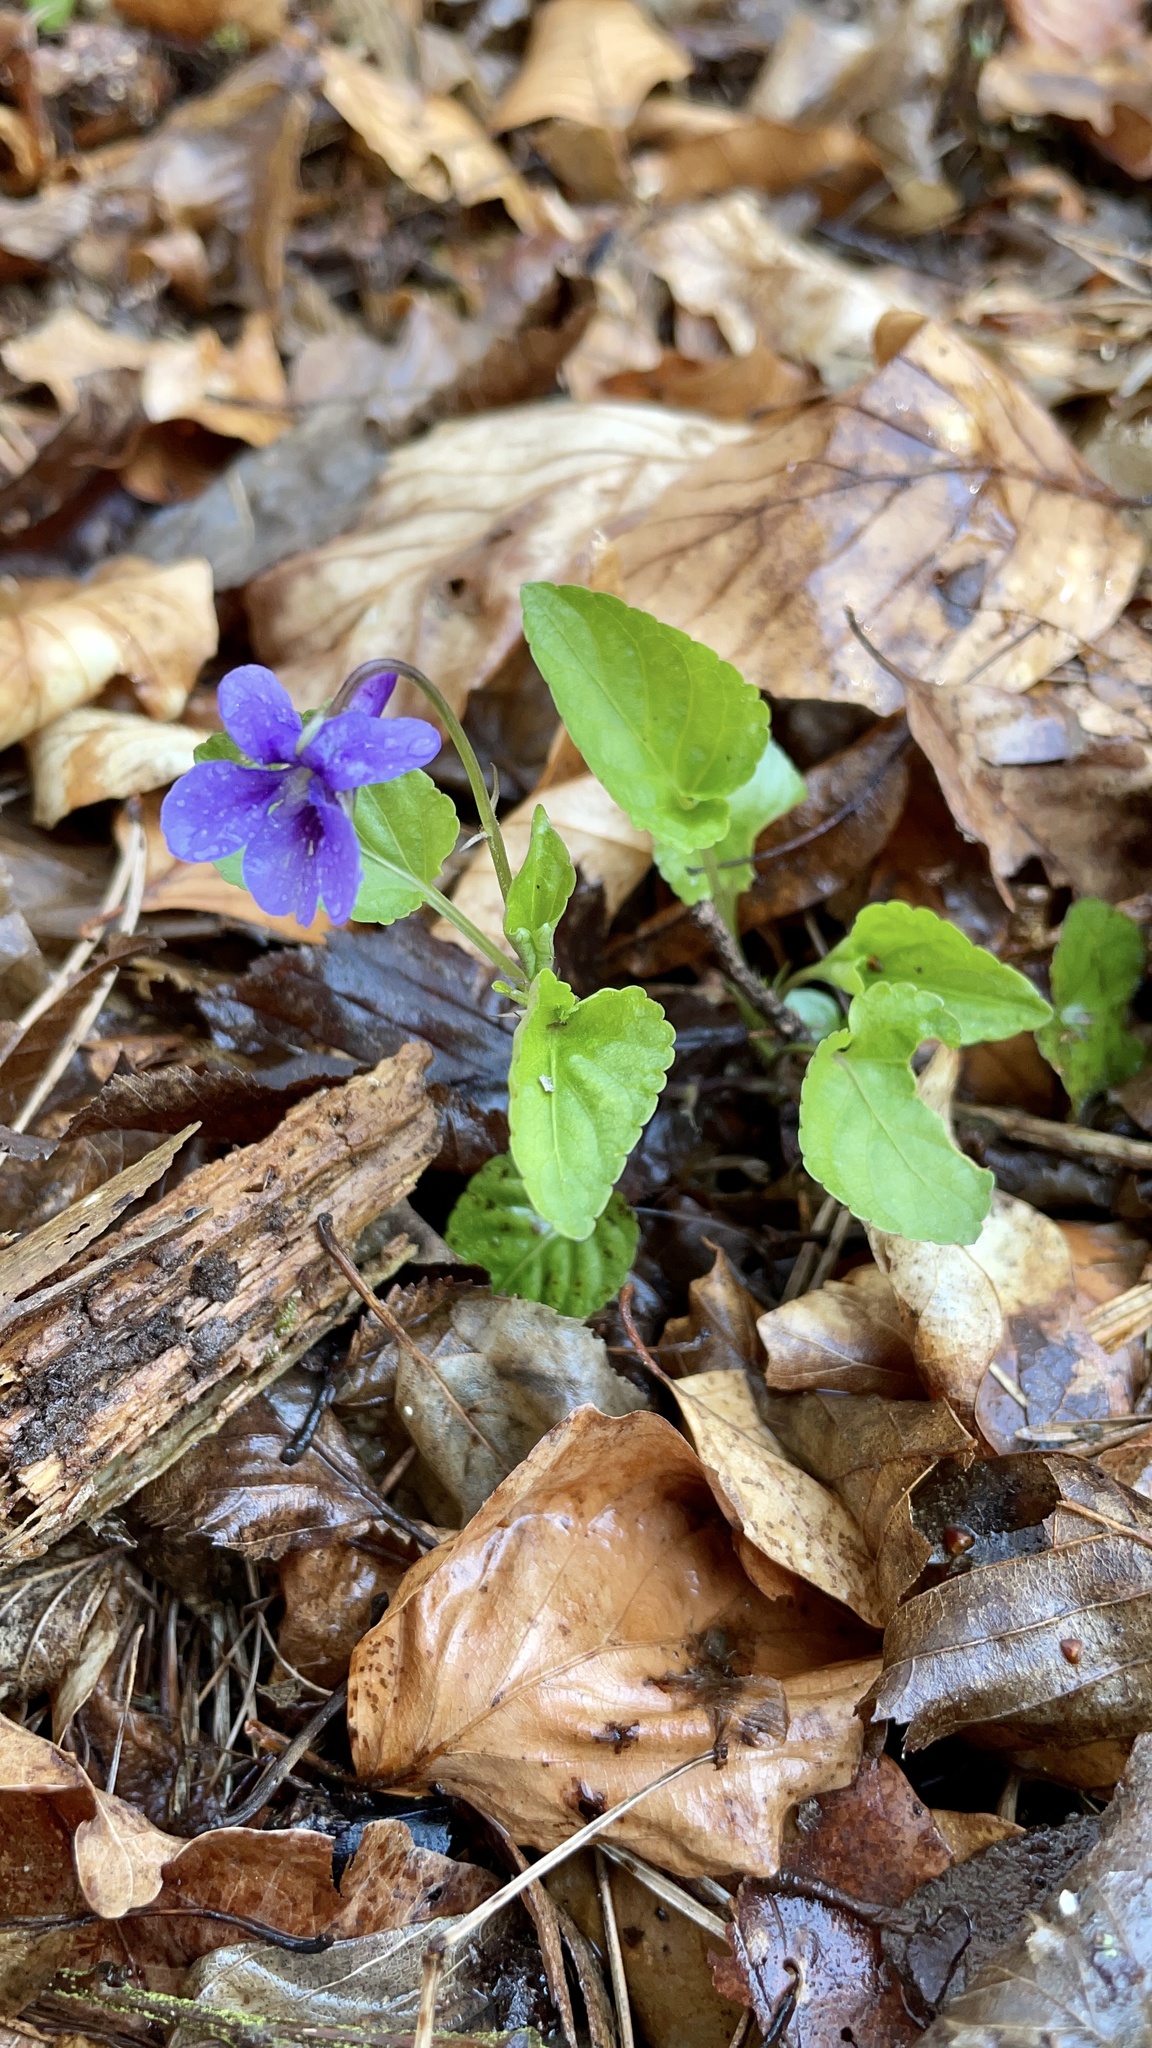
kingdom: Plantae
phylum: Tracheophyta
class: Magnoliopsida
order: Malpighiales
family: Violaceae
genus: Viola
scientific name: Viola reichenbachiana
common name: Early dog-violet
